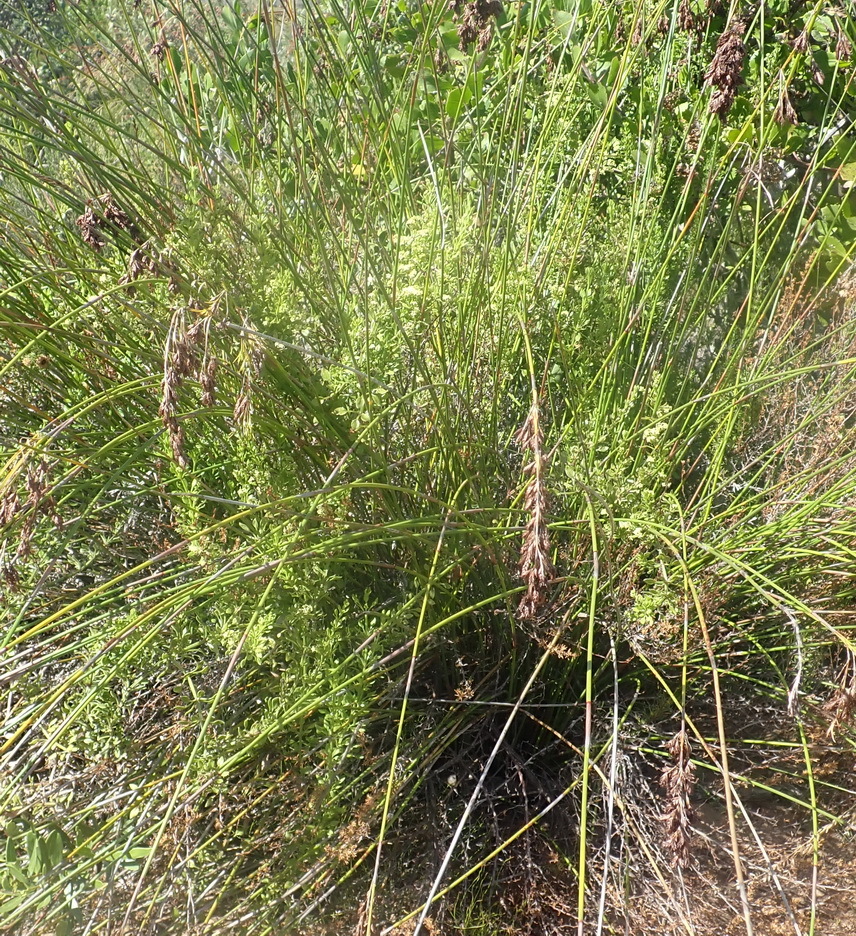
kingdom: Plantae
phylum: Tracheophyta
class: Magnoliopsida
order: Gentianales
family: Rubiaceae
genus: Rubia
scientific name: Rubia petiolaris
